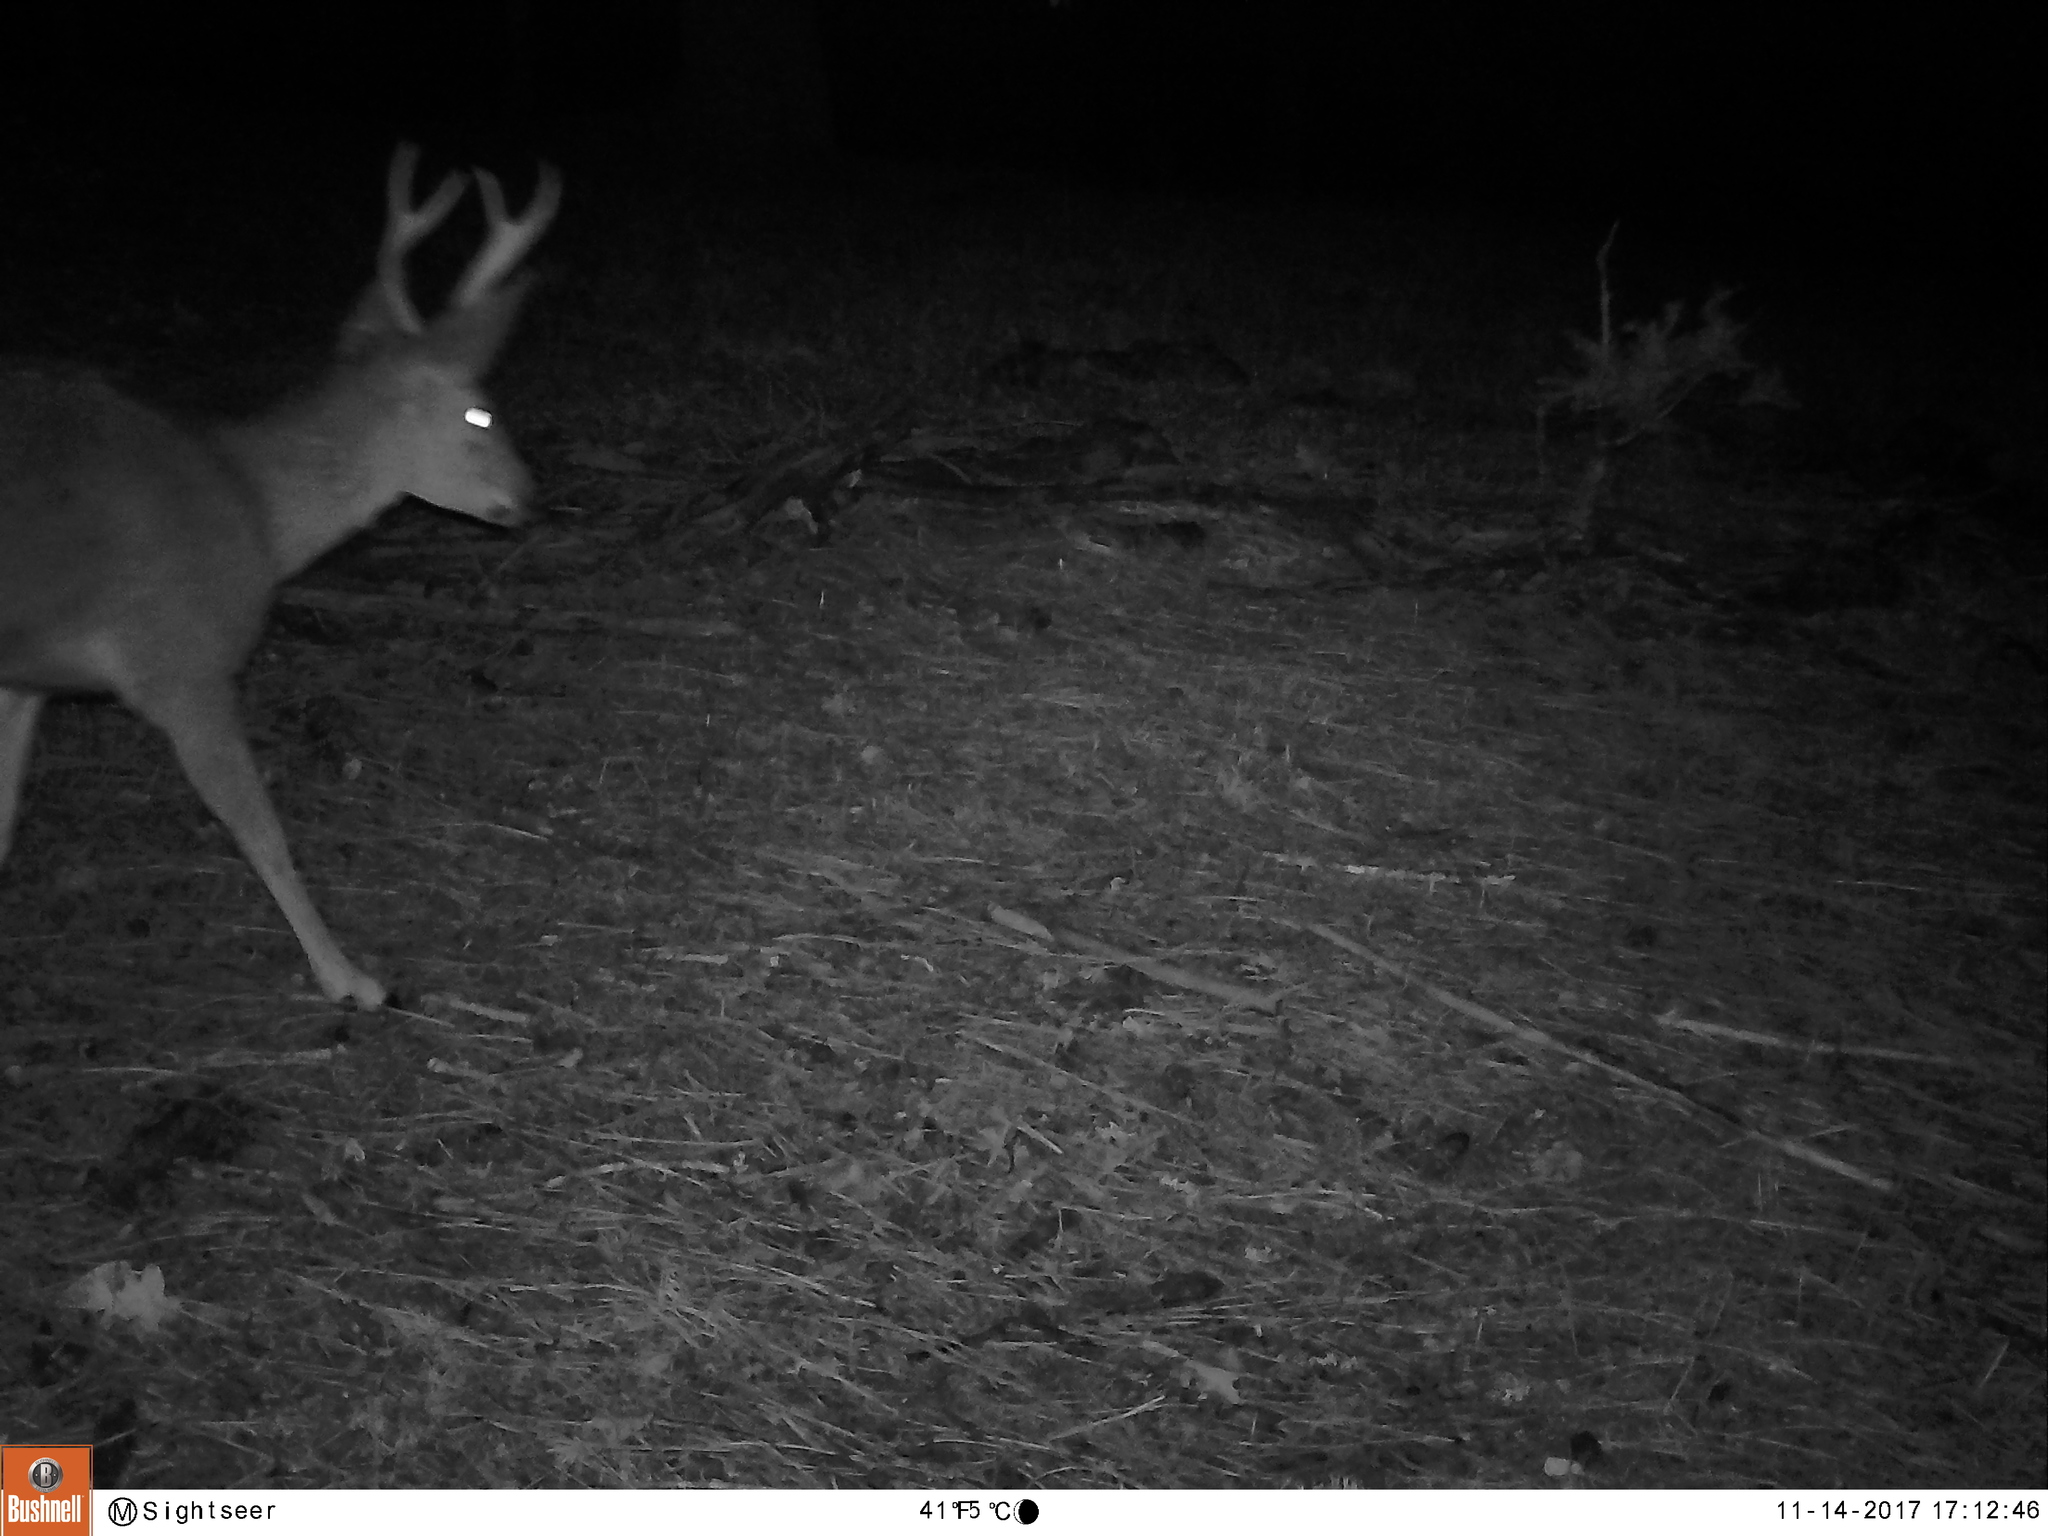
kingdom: Animalia
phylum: Chordata
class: Mammalia
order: Artiodactyla
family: Cervidae
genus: Odocoileus
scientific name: Odocoileus hemionus
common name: Mule deer
